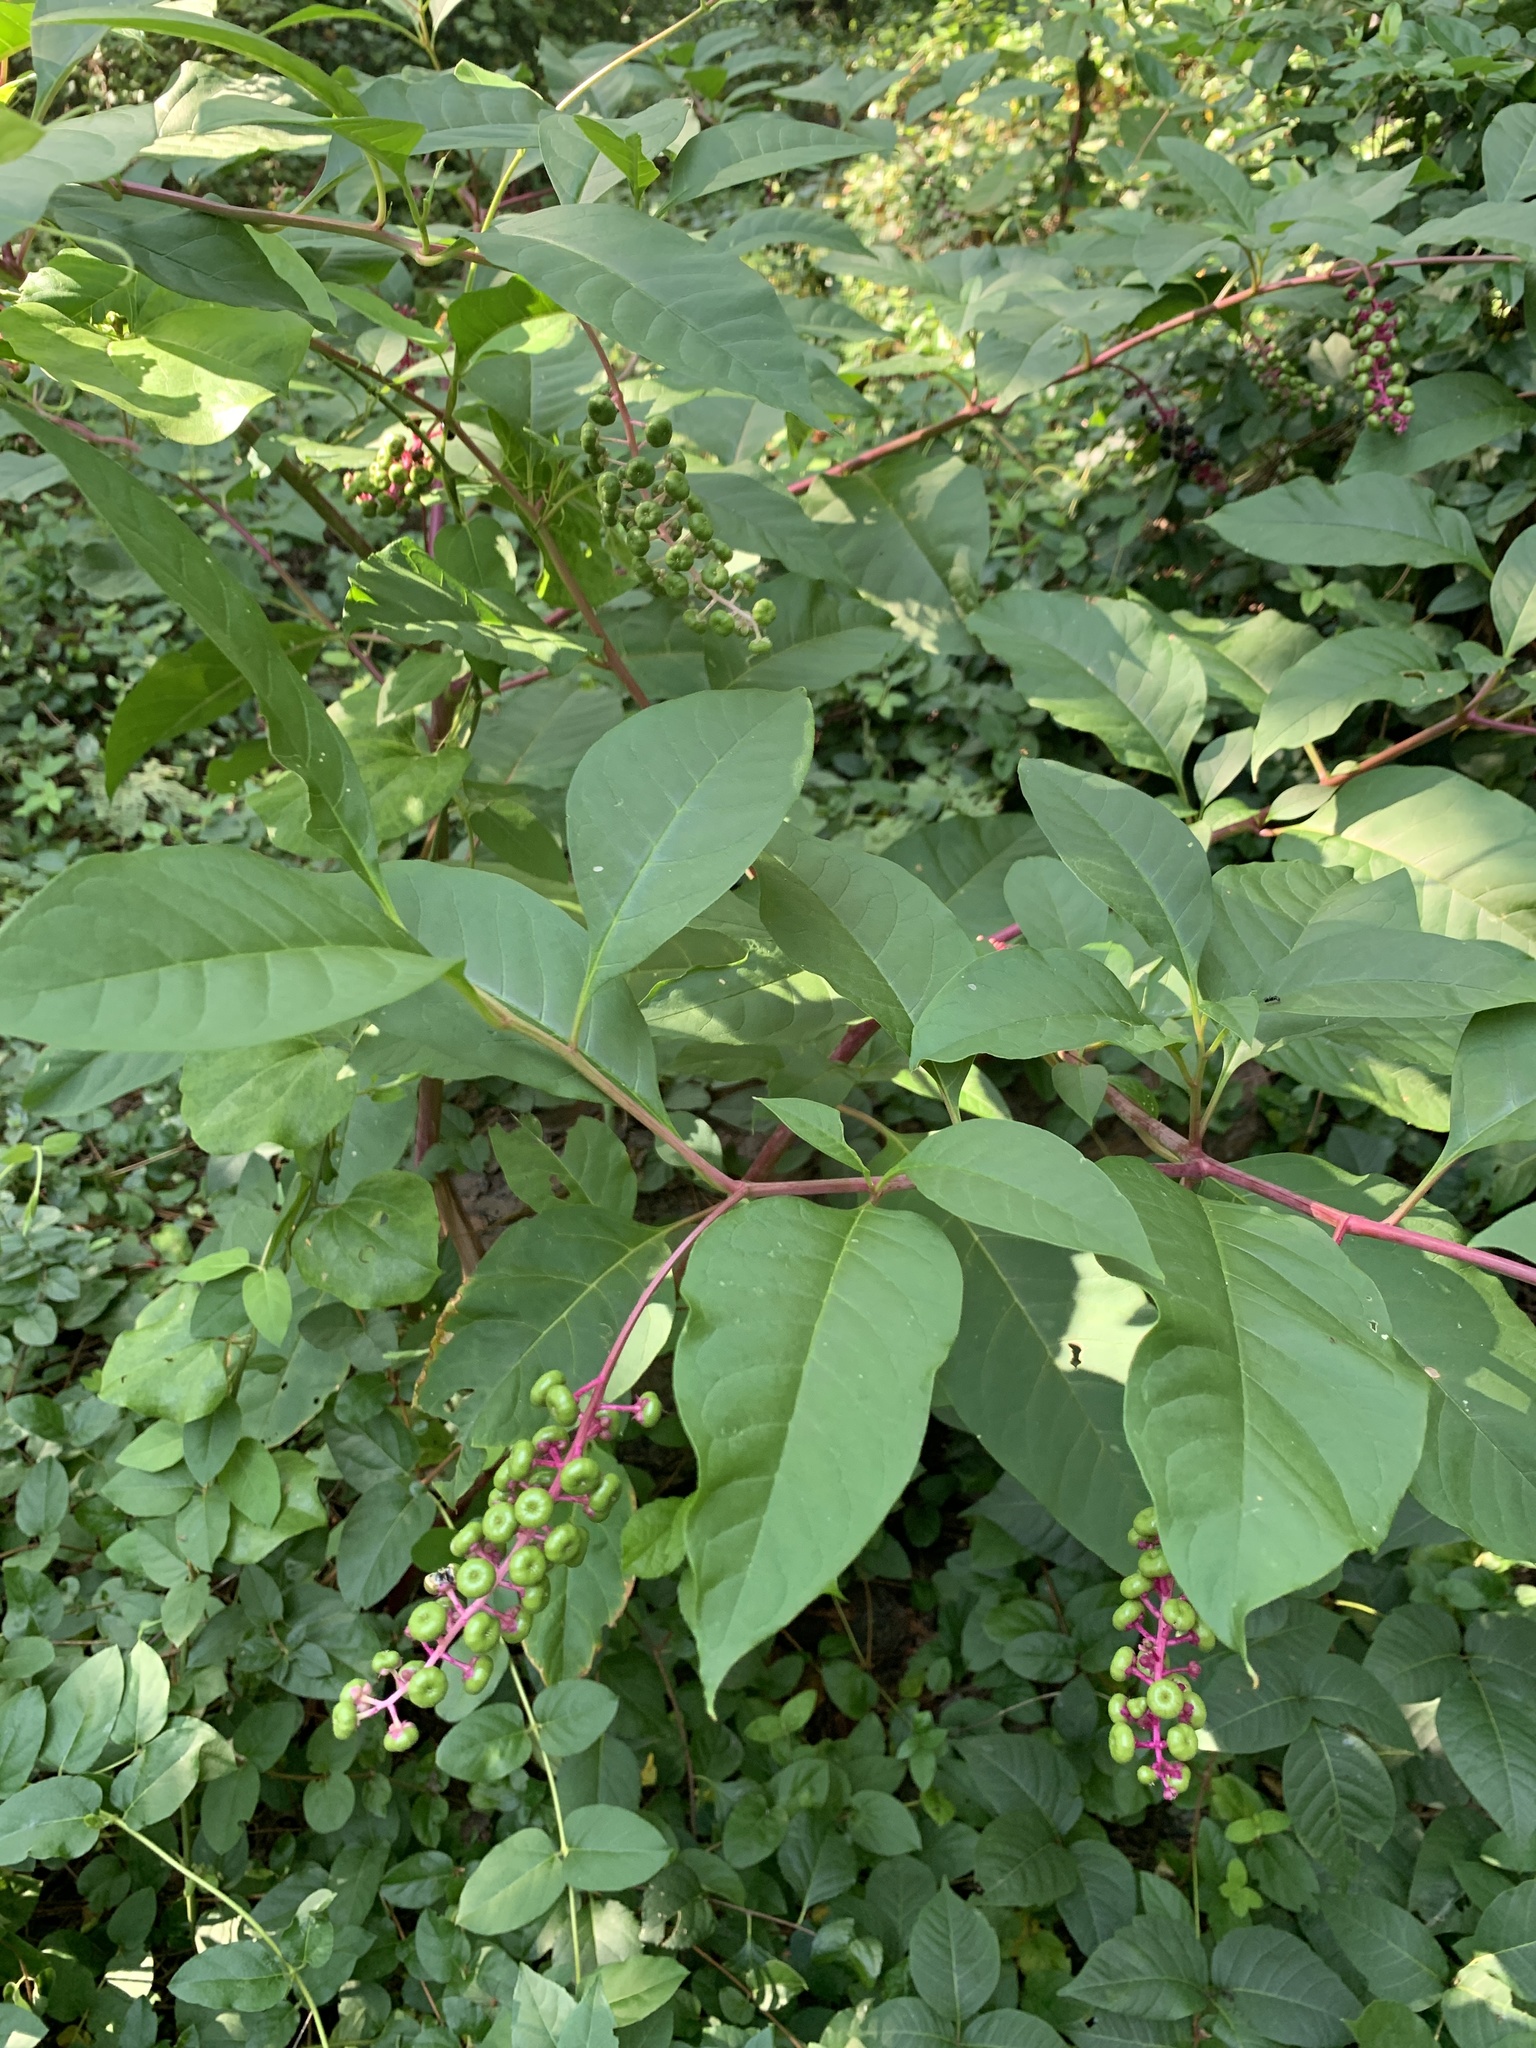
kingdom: Plantae
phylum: Tracheophyta
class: Magnoliopsida
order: Caryophyllales
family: Phytolaccaceae
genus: Phytolacca
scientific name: Phytolacca americana
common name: American pokeweed
